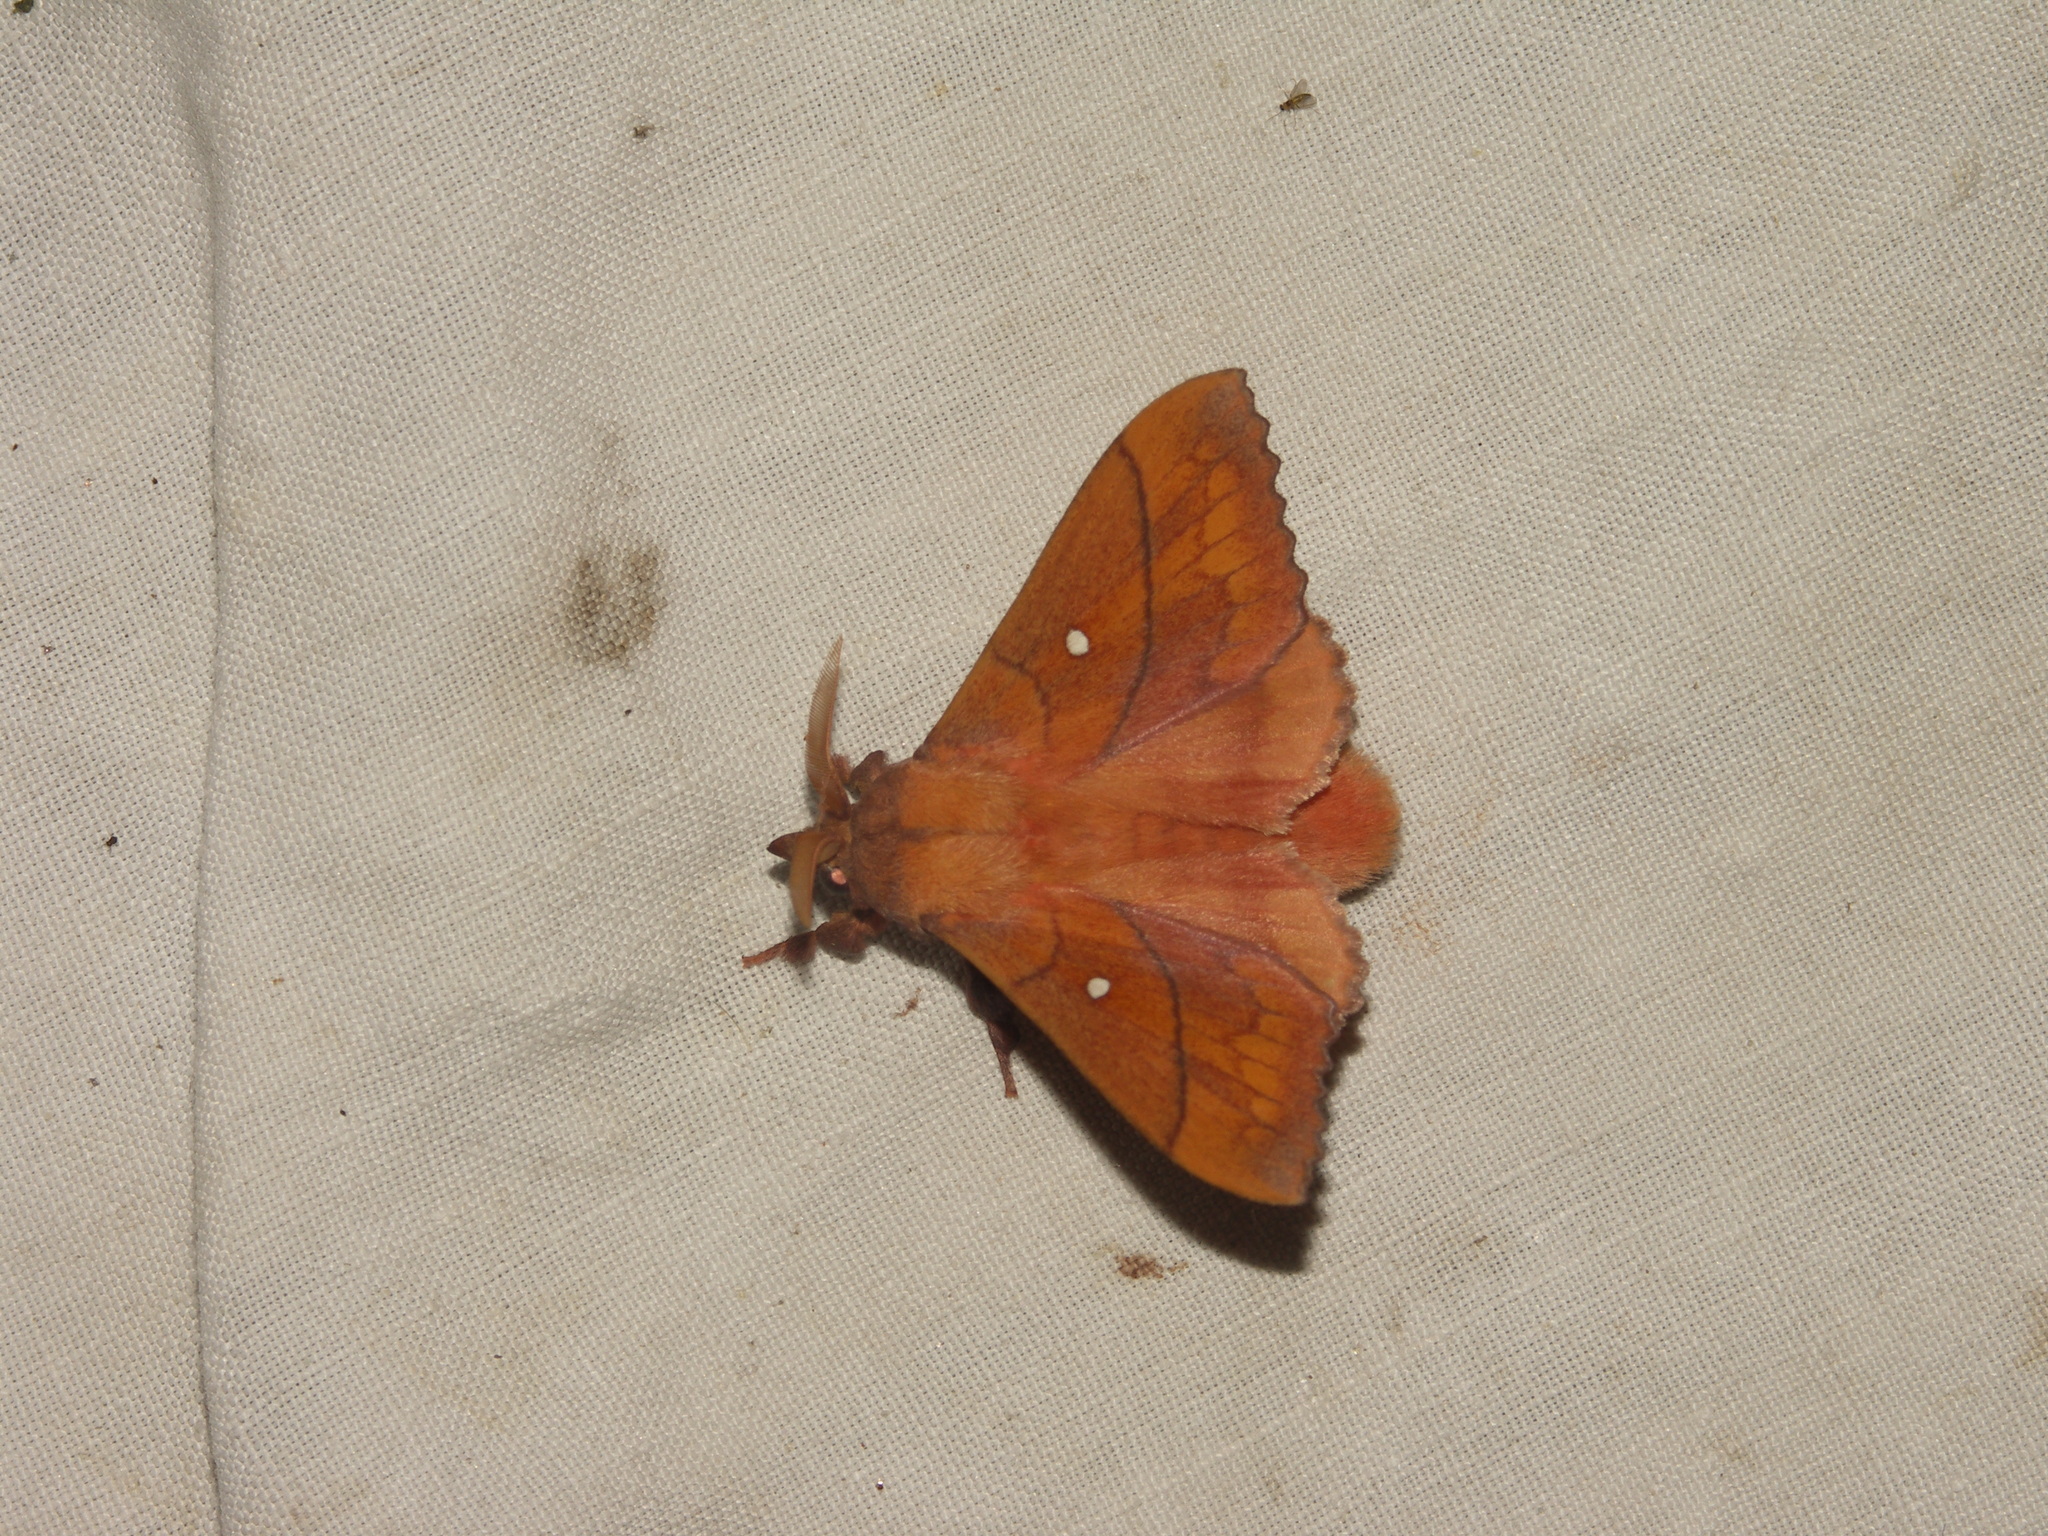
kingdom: Animalia
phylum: Arthropoda
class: Insecta
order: Lepidoptera
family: Lasiocampidae
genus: Odonestis
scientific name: Odonestis pruni
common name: Plum lappet
